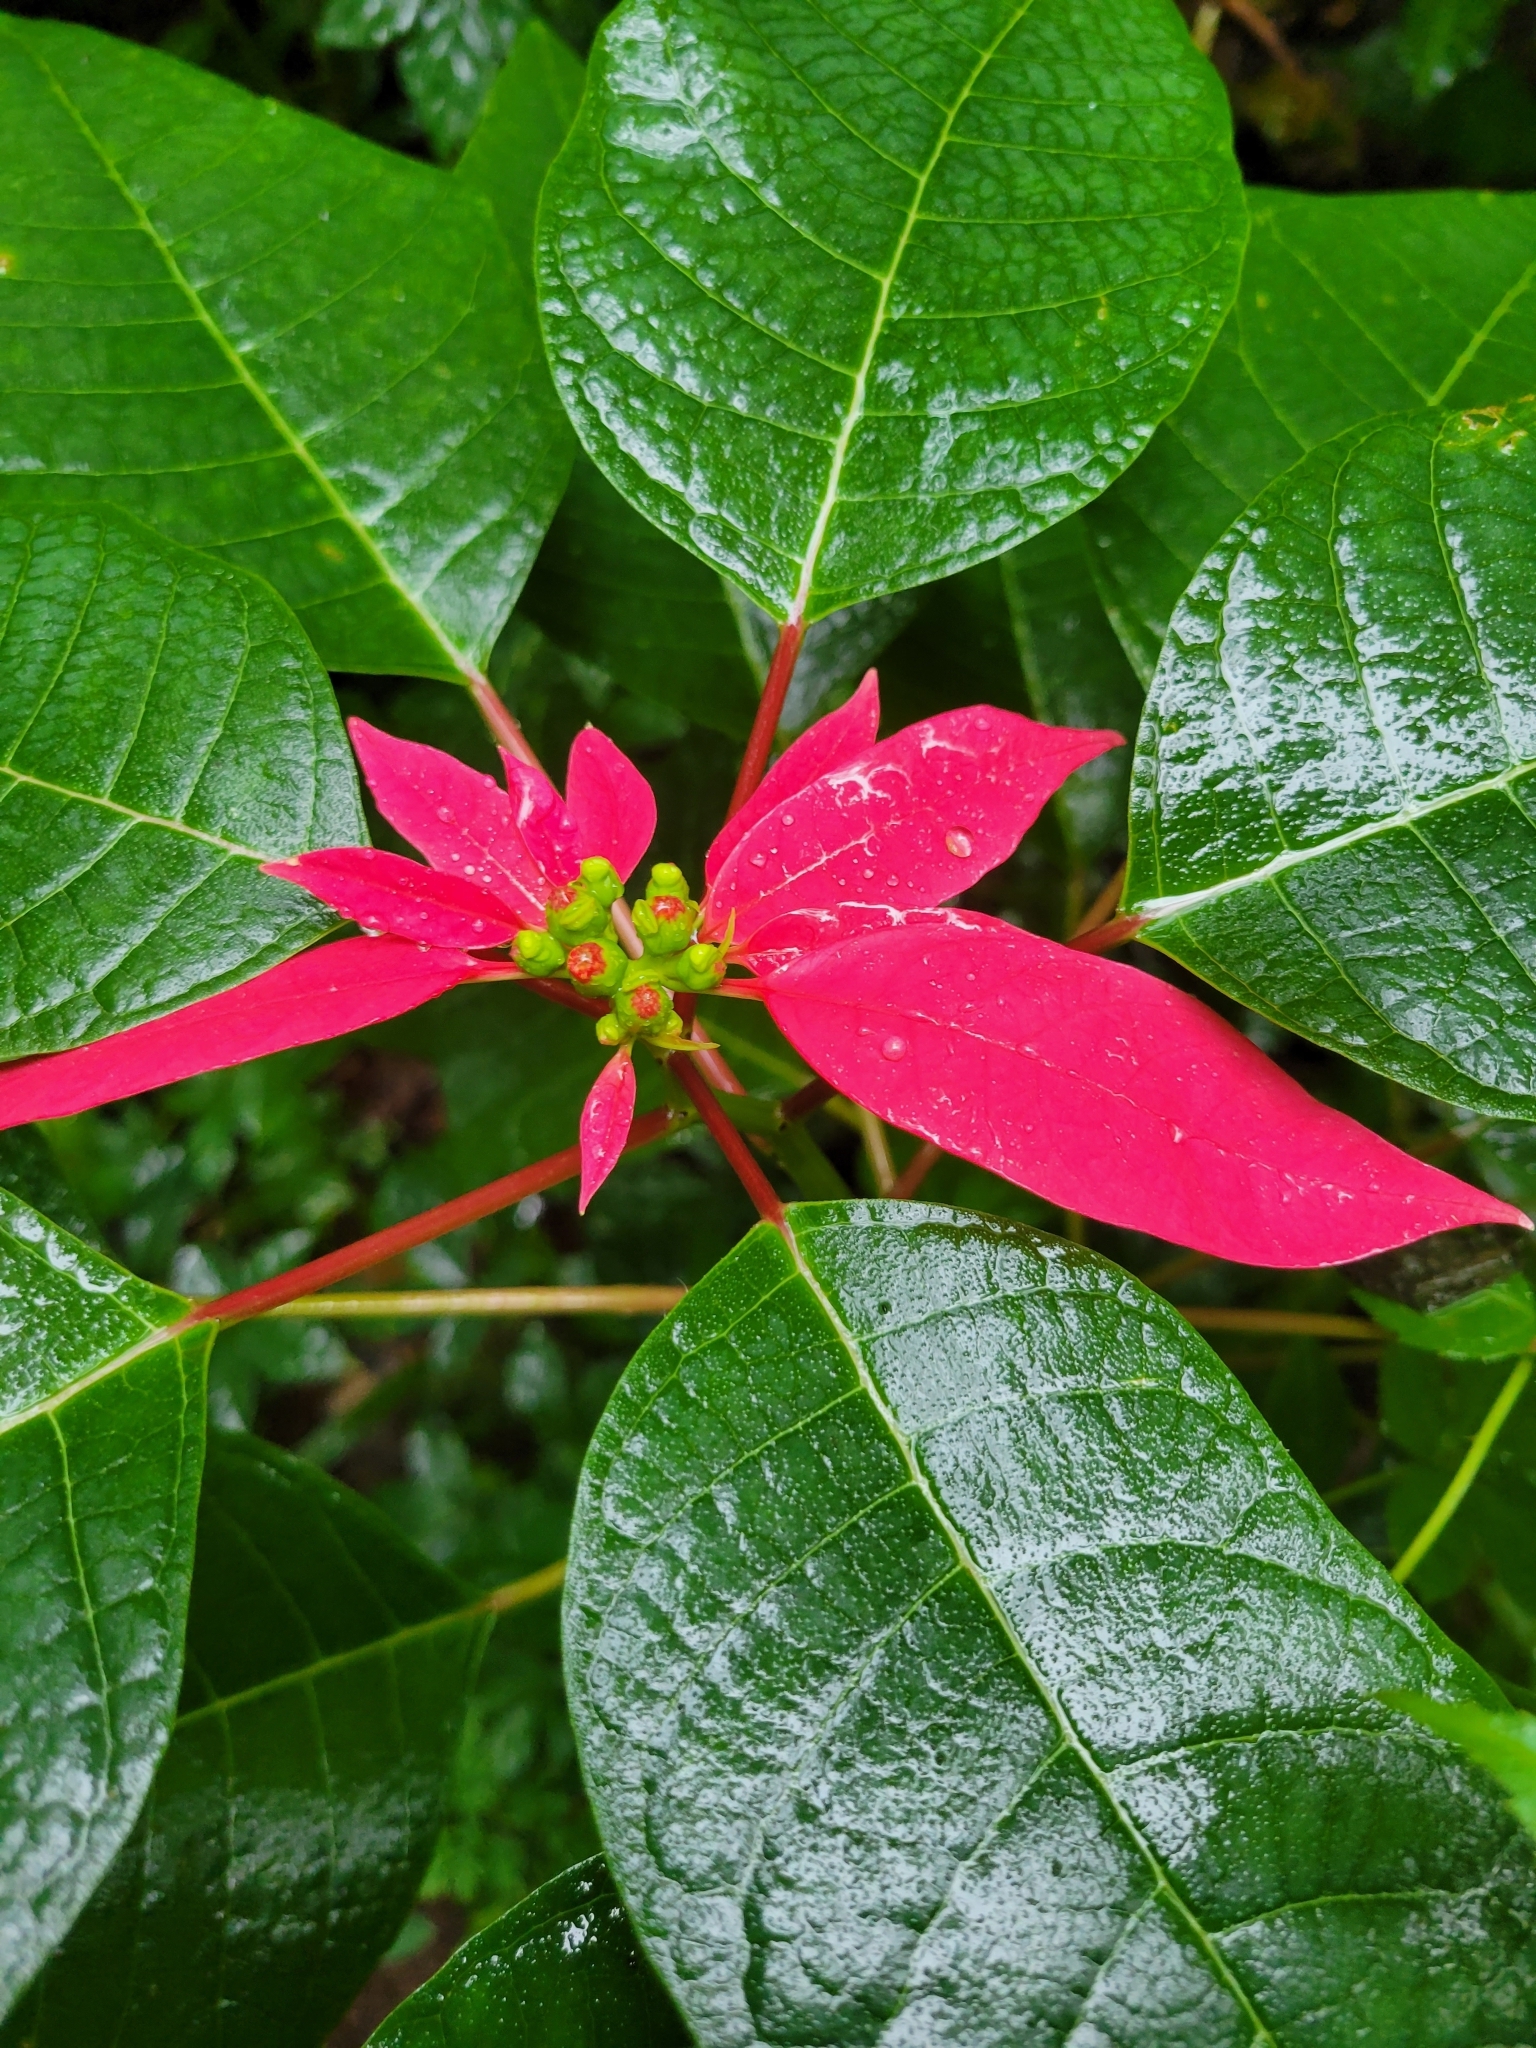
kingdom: Plantae
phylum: Tracheophyta
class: Magnoliopsida
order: Malpighiales
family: Euphorbiaceae
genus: Euphorbia
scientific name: Euphorbia pulcherrima
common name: Christmas-flower
